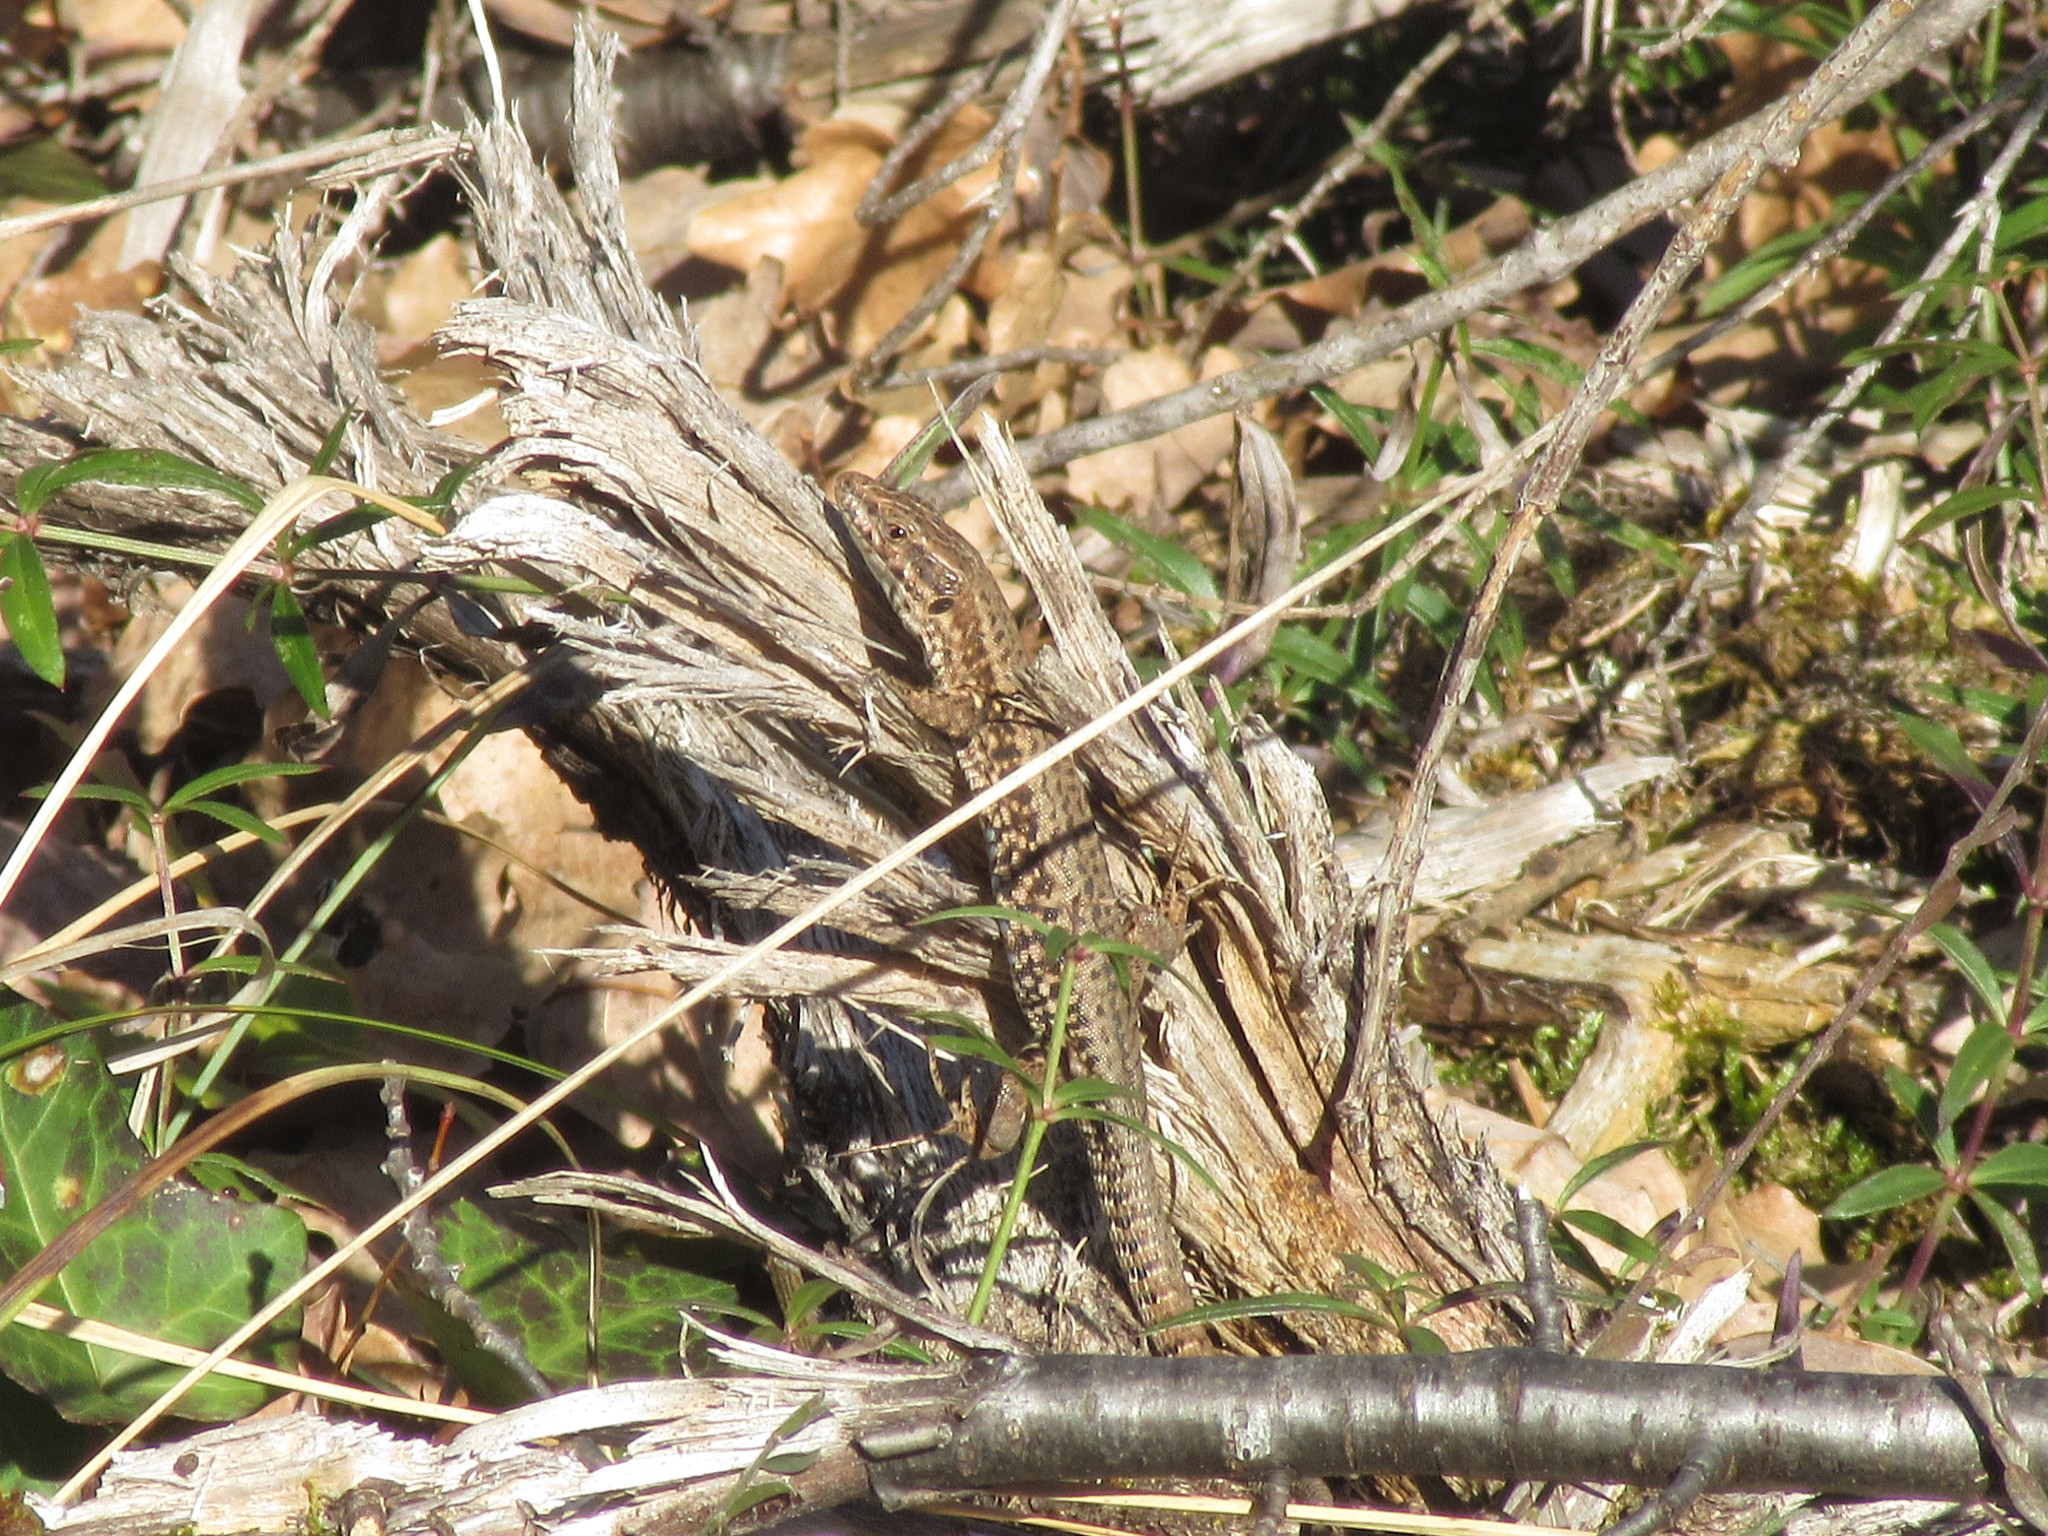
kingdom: Animalia
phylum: Chordata
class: Squamata
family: Lacertidae
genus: Podarcis
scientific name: Podarcis muralis
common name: Common wall lizard
